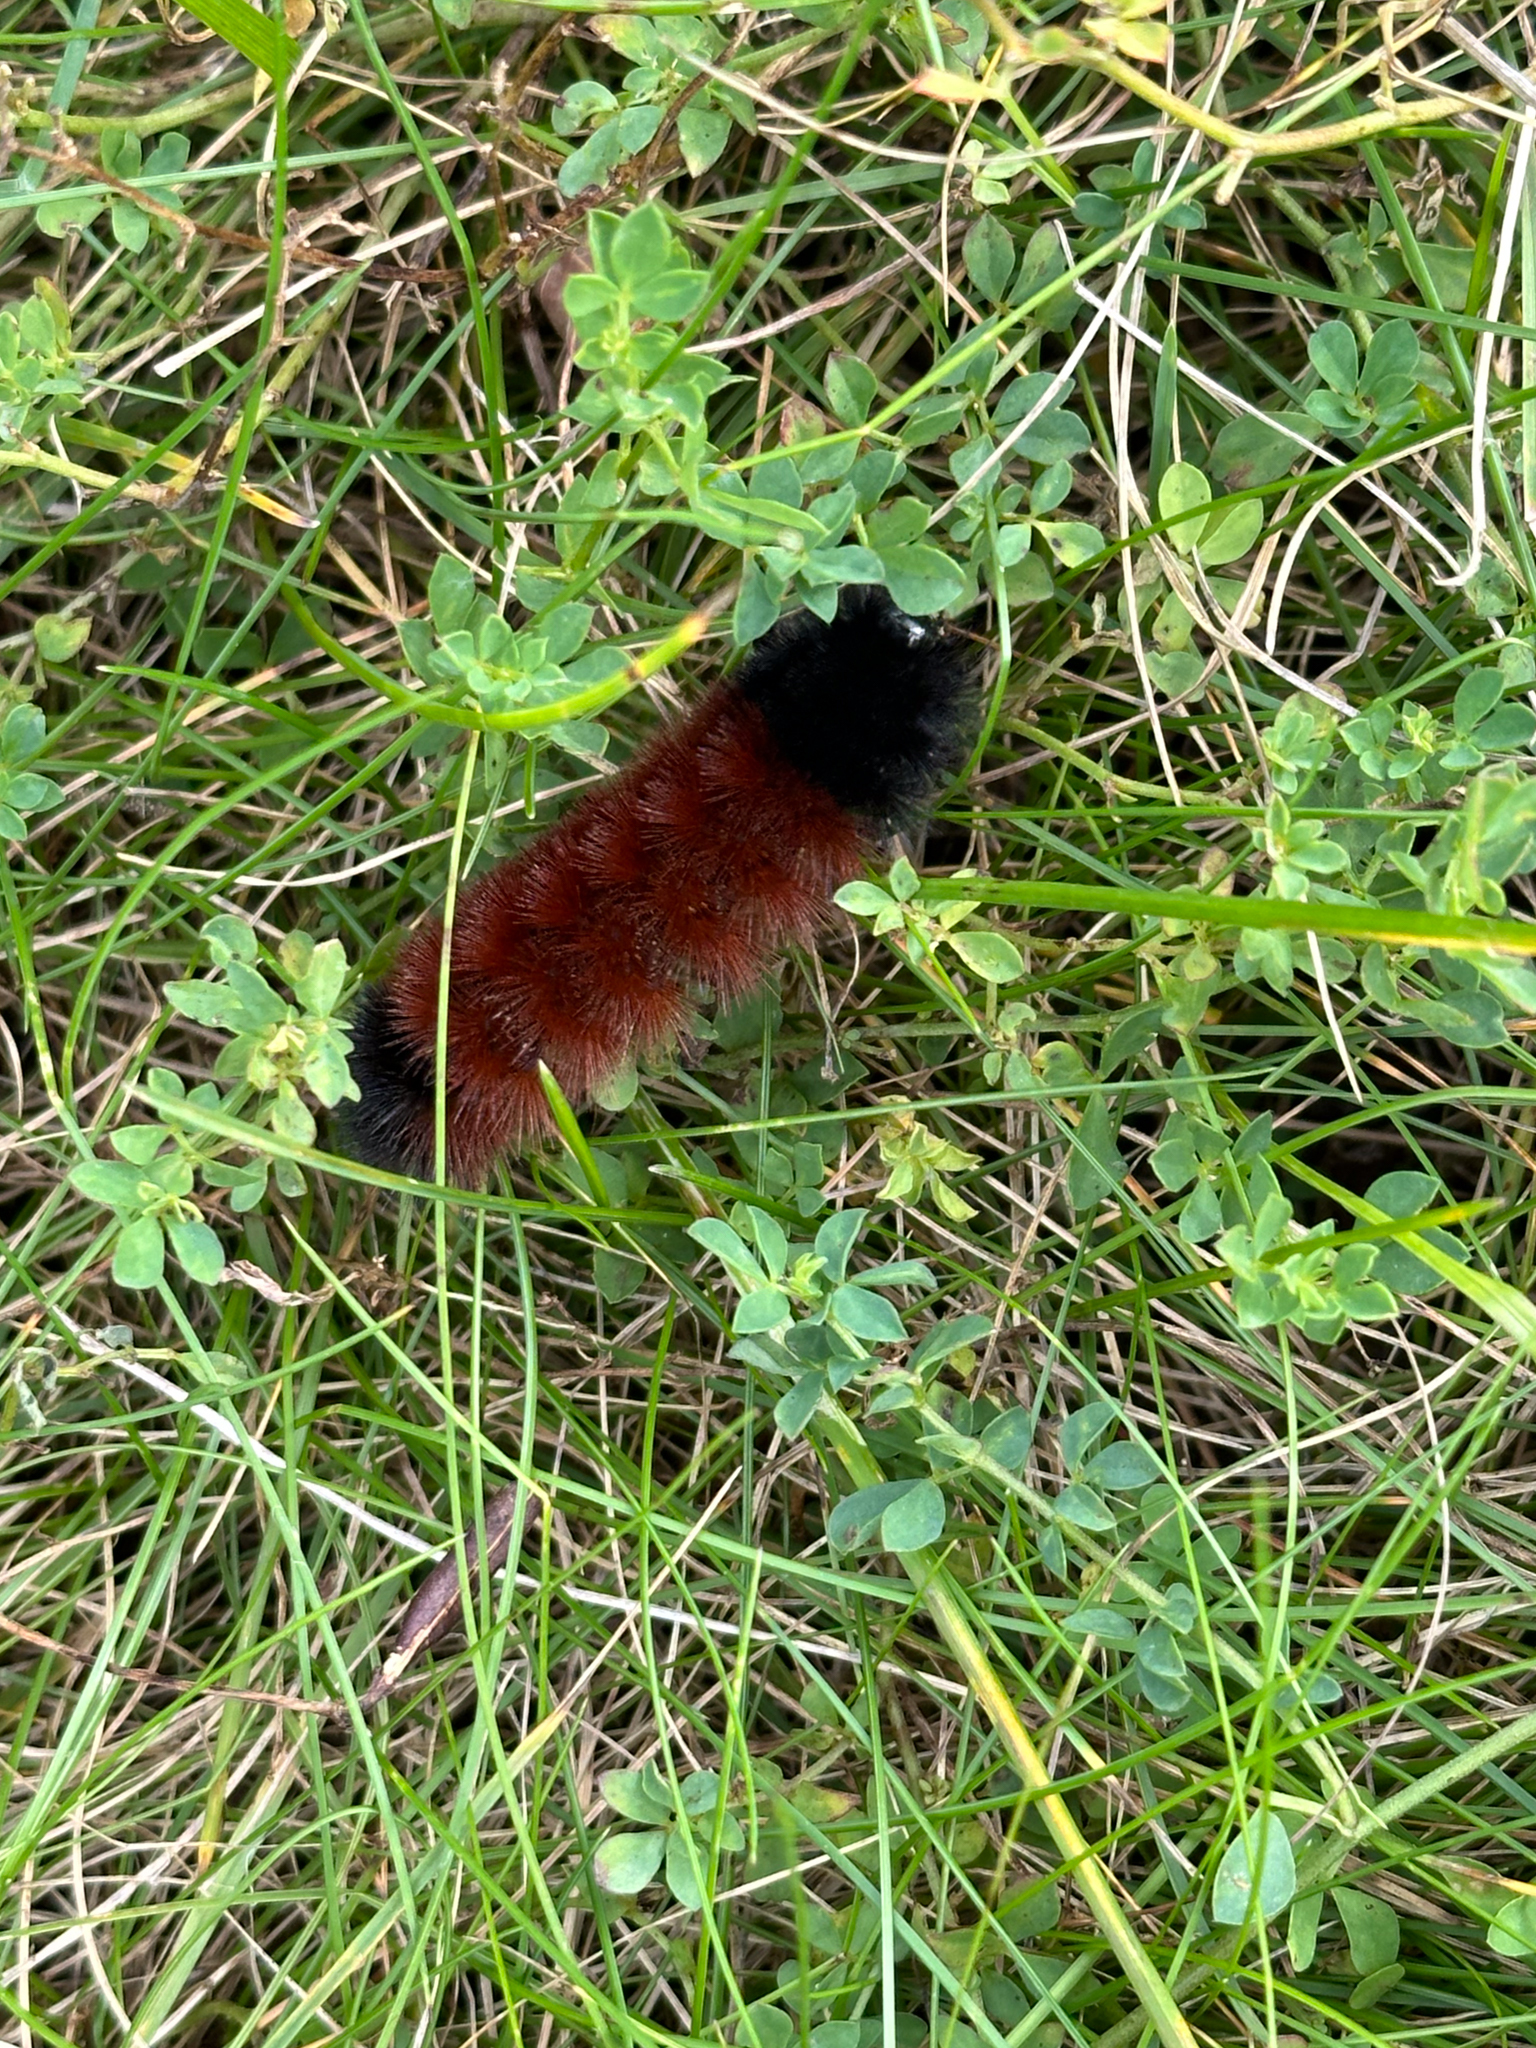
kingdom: Animalia
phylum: Arthropoda
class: Insecta
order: Lepidoptera
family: Erebidae
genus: Pyrrharctia
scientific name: Pyrrharctia isabella
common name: Isabella tiger moth
